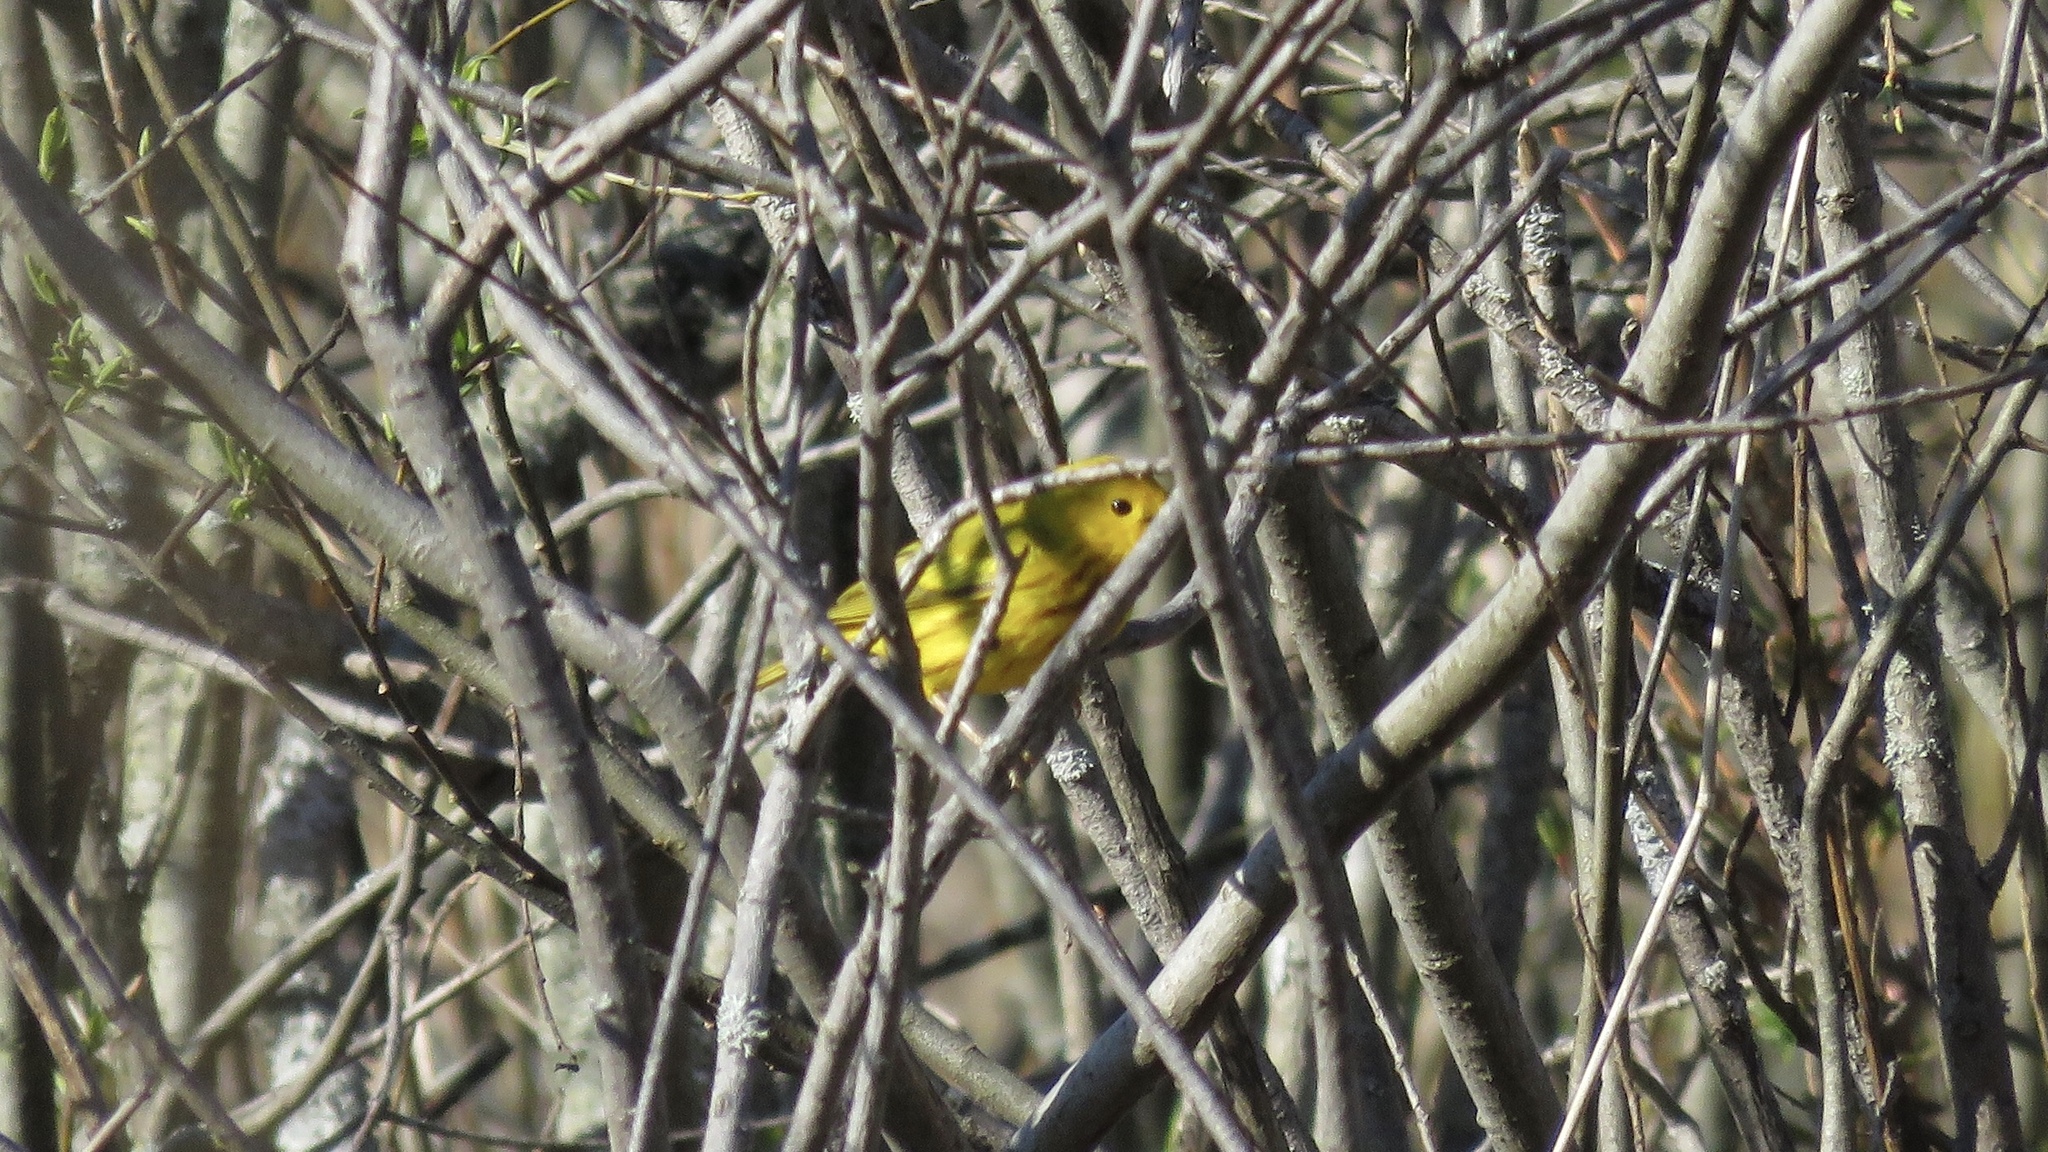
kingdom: Animalia
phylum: Chordata
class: Aves
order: Passeriformes
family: Parulidae
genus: Setophaga
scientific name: Setophaga petechia
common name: Yellow warbler
